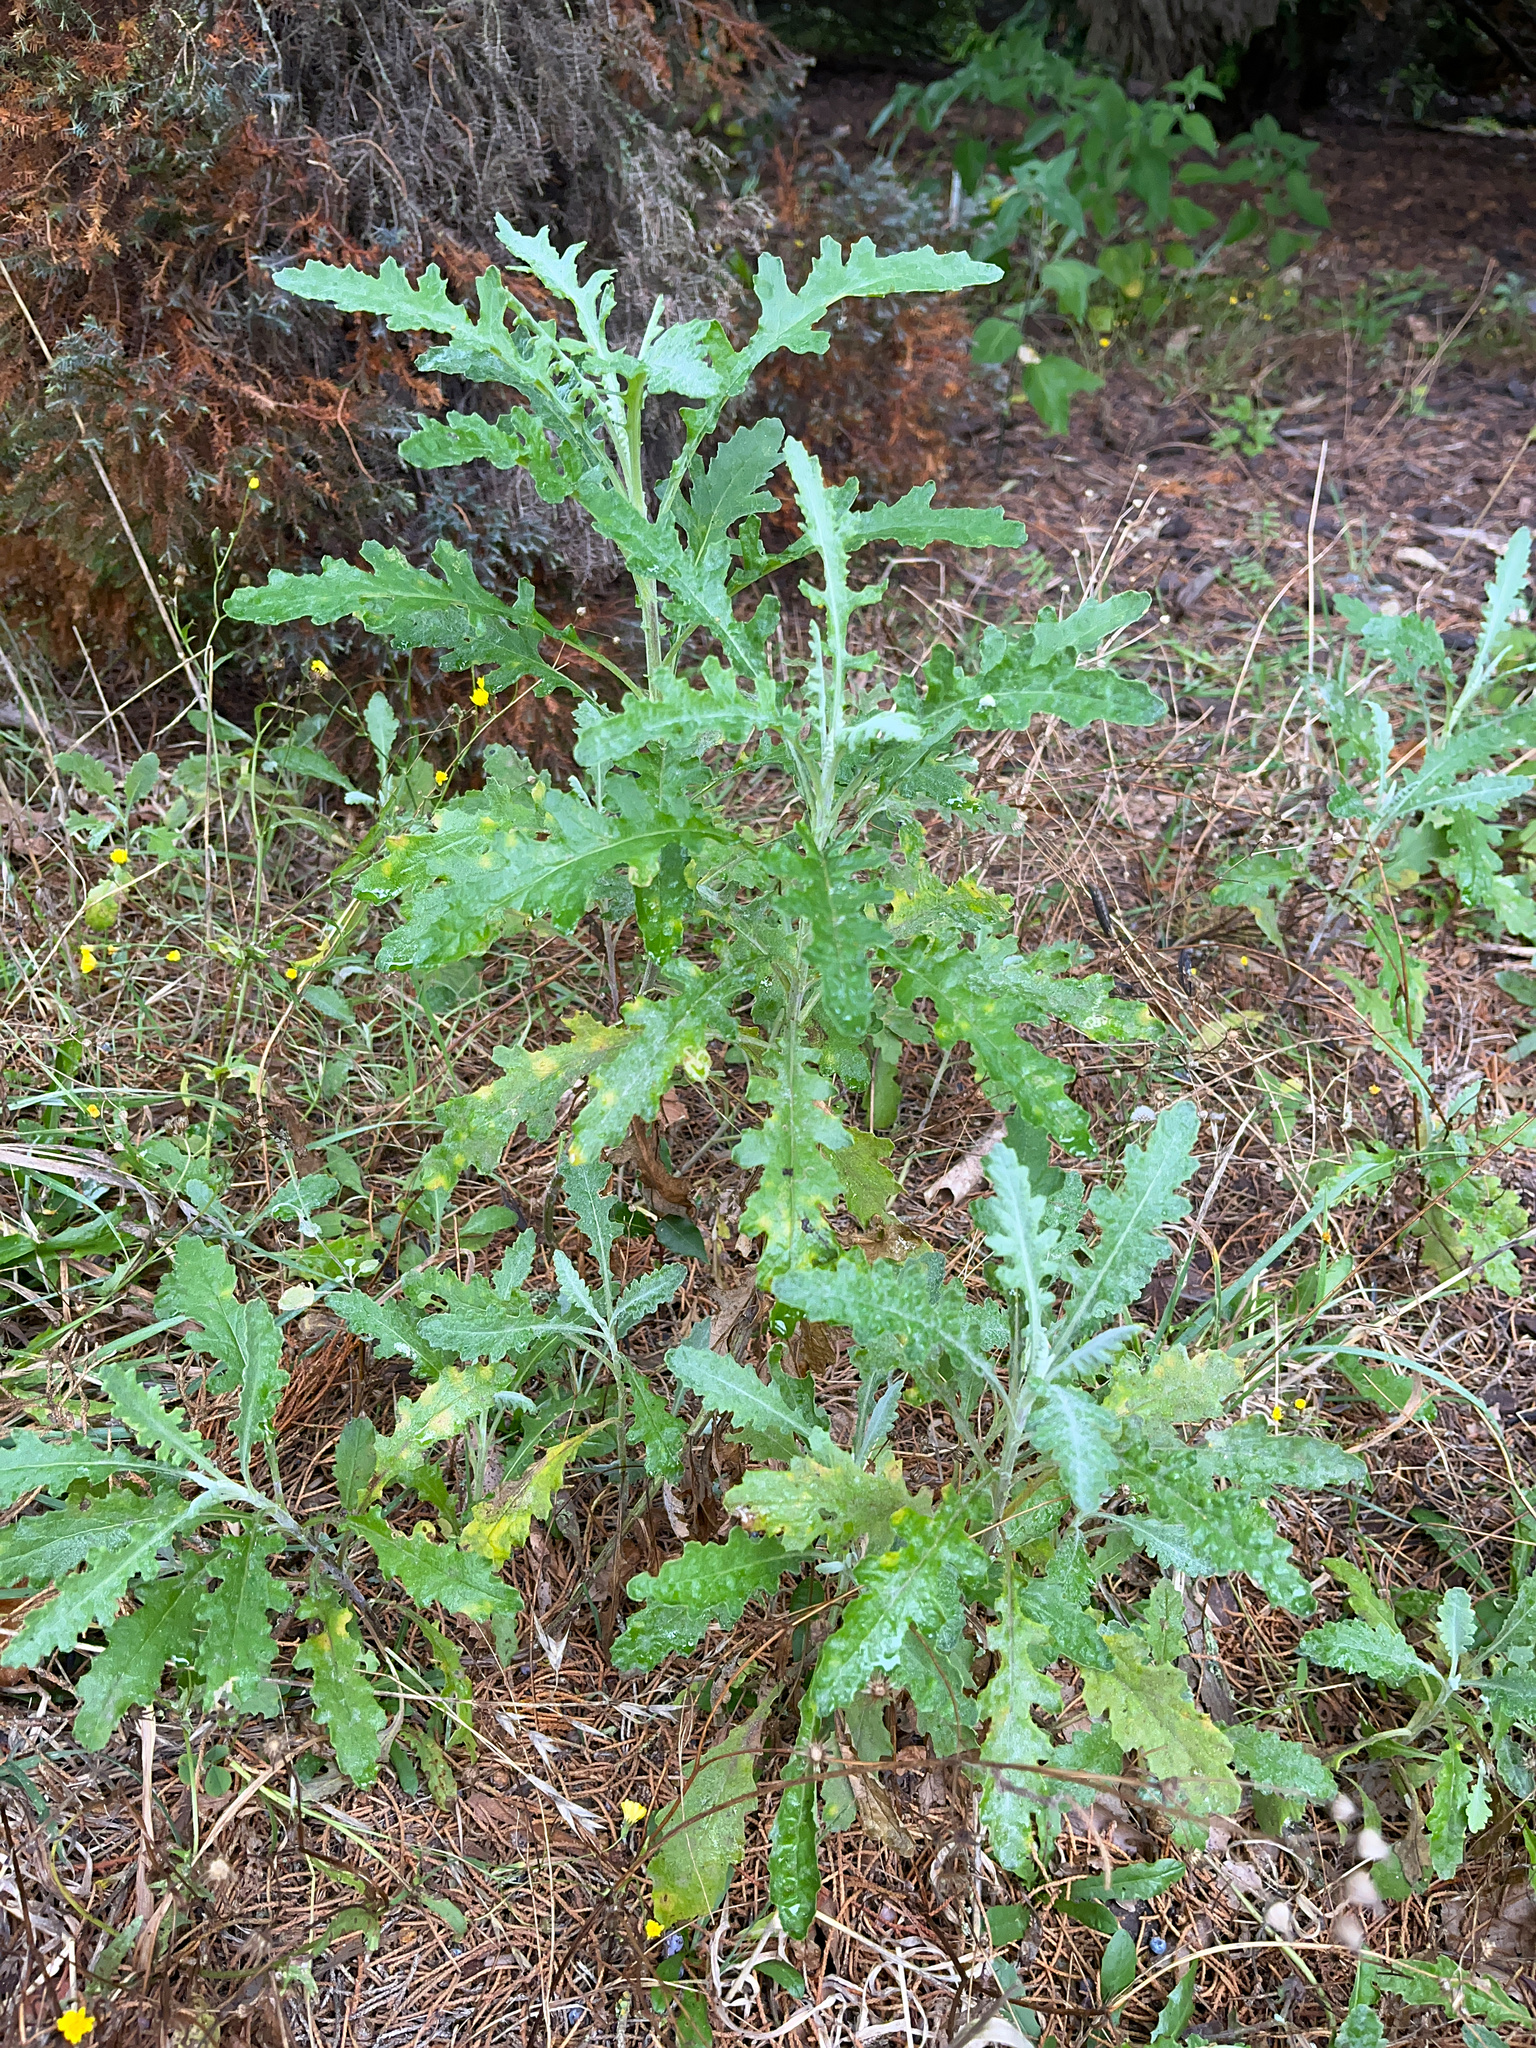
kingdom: Plantae
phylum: Tracheophyta
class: Magnoliopsida
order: Asterales
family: Asteraceae
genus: Senecio
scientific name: Senecio glomeratus
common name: Cutleaf burnweed
